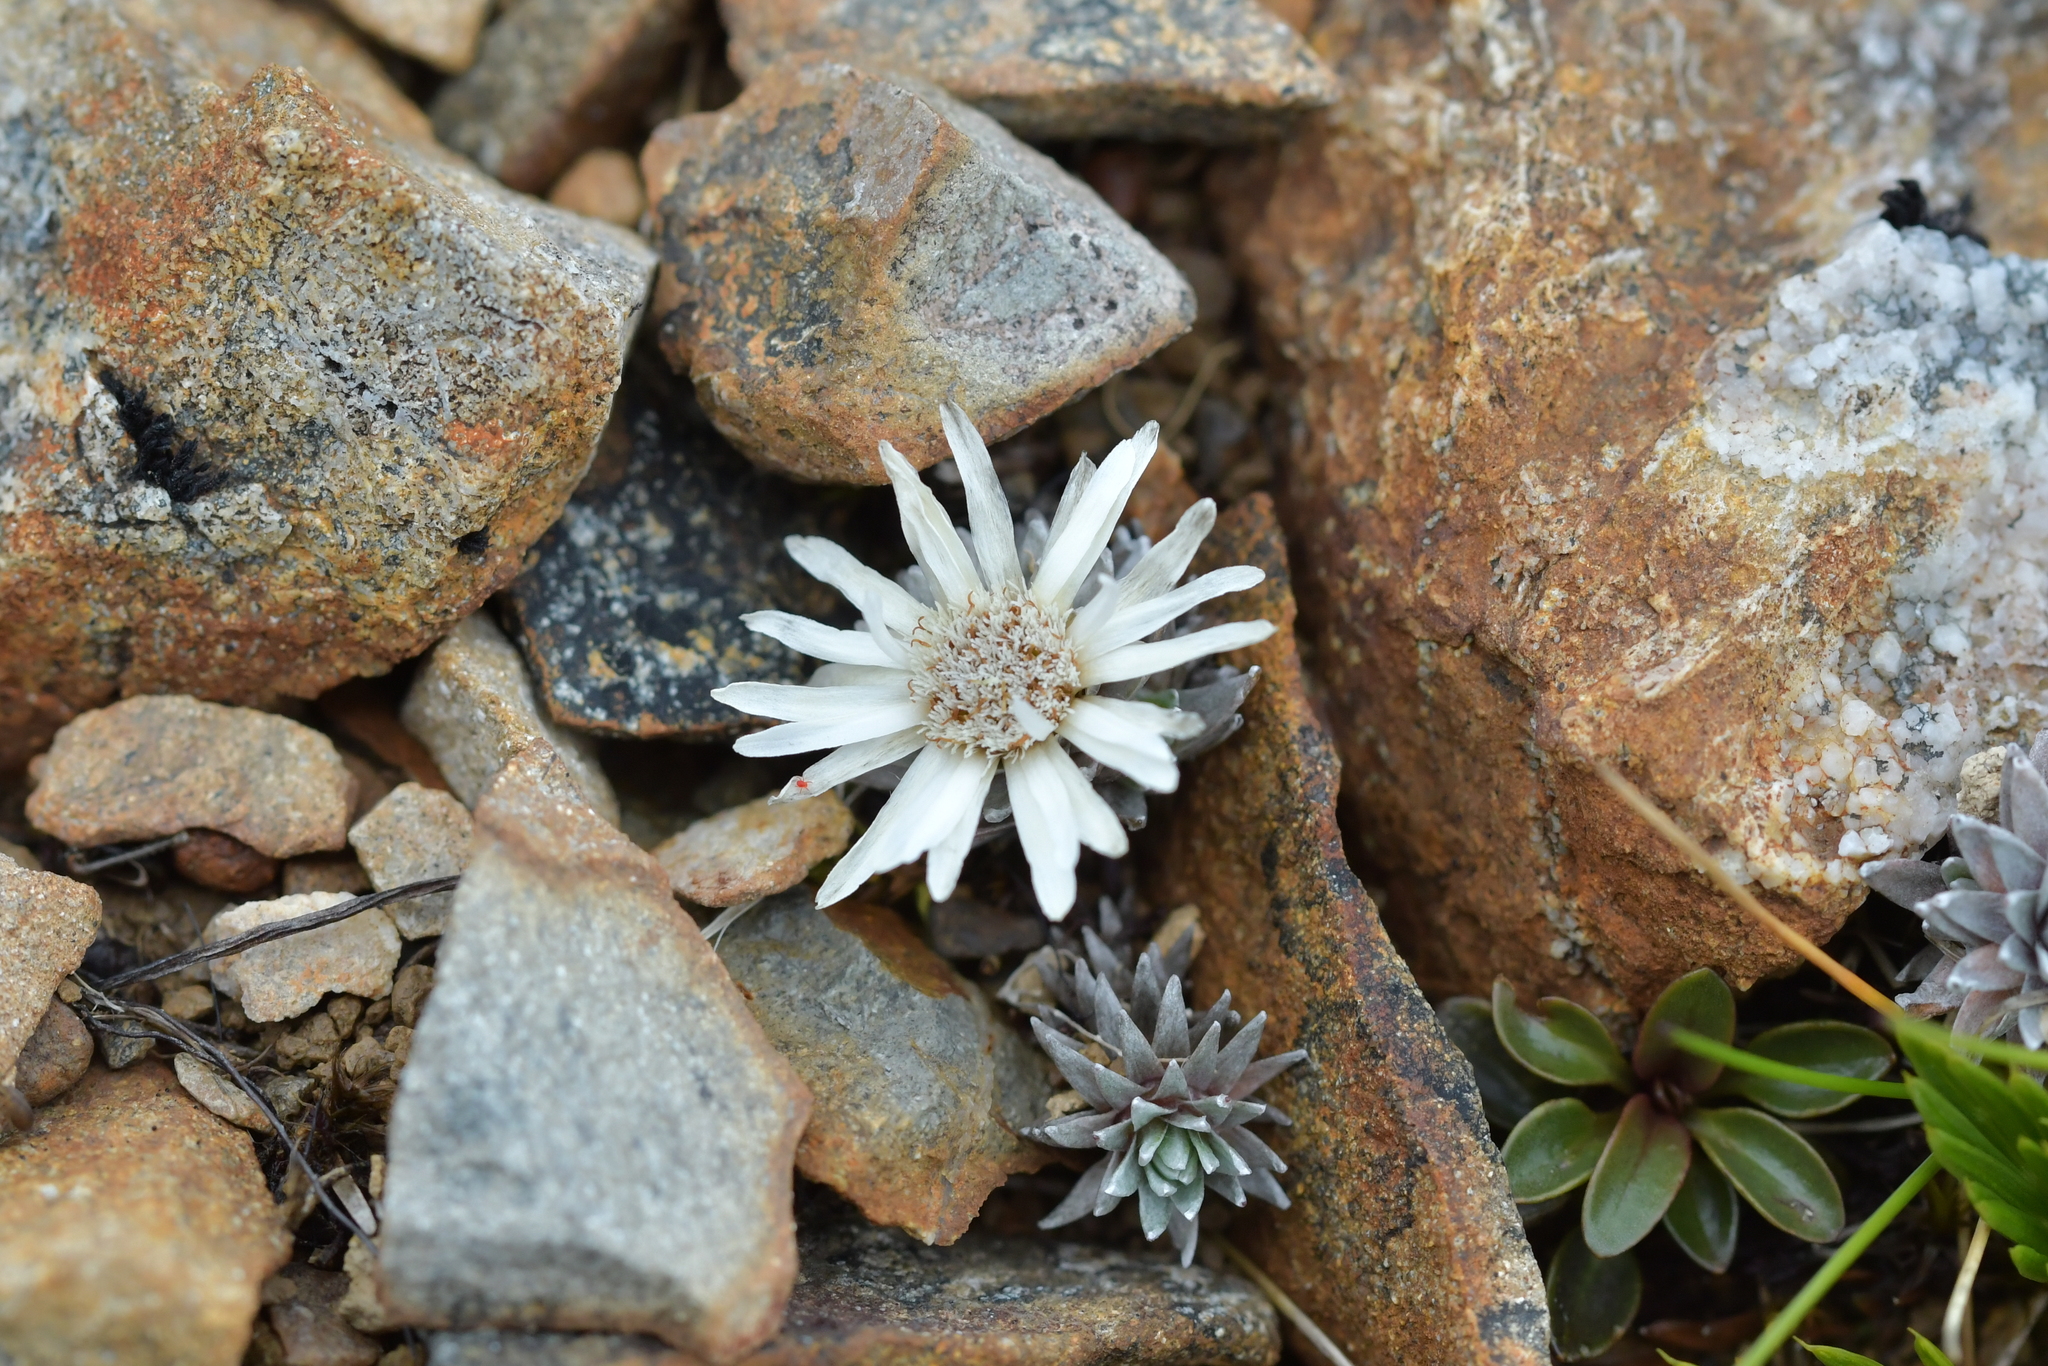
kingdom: Plantae
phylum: Tracheophyta
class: Magnoliopsida
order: Asterales
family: Asteraceae
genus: Raoulia
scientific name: Raoulia grandiflora
